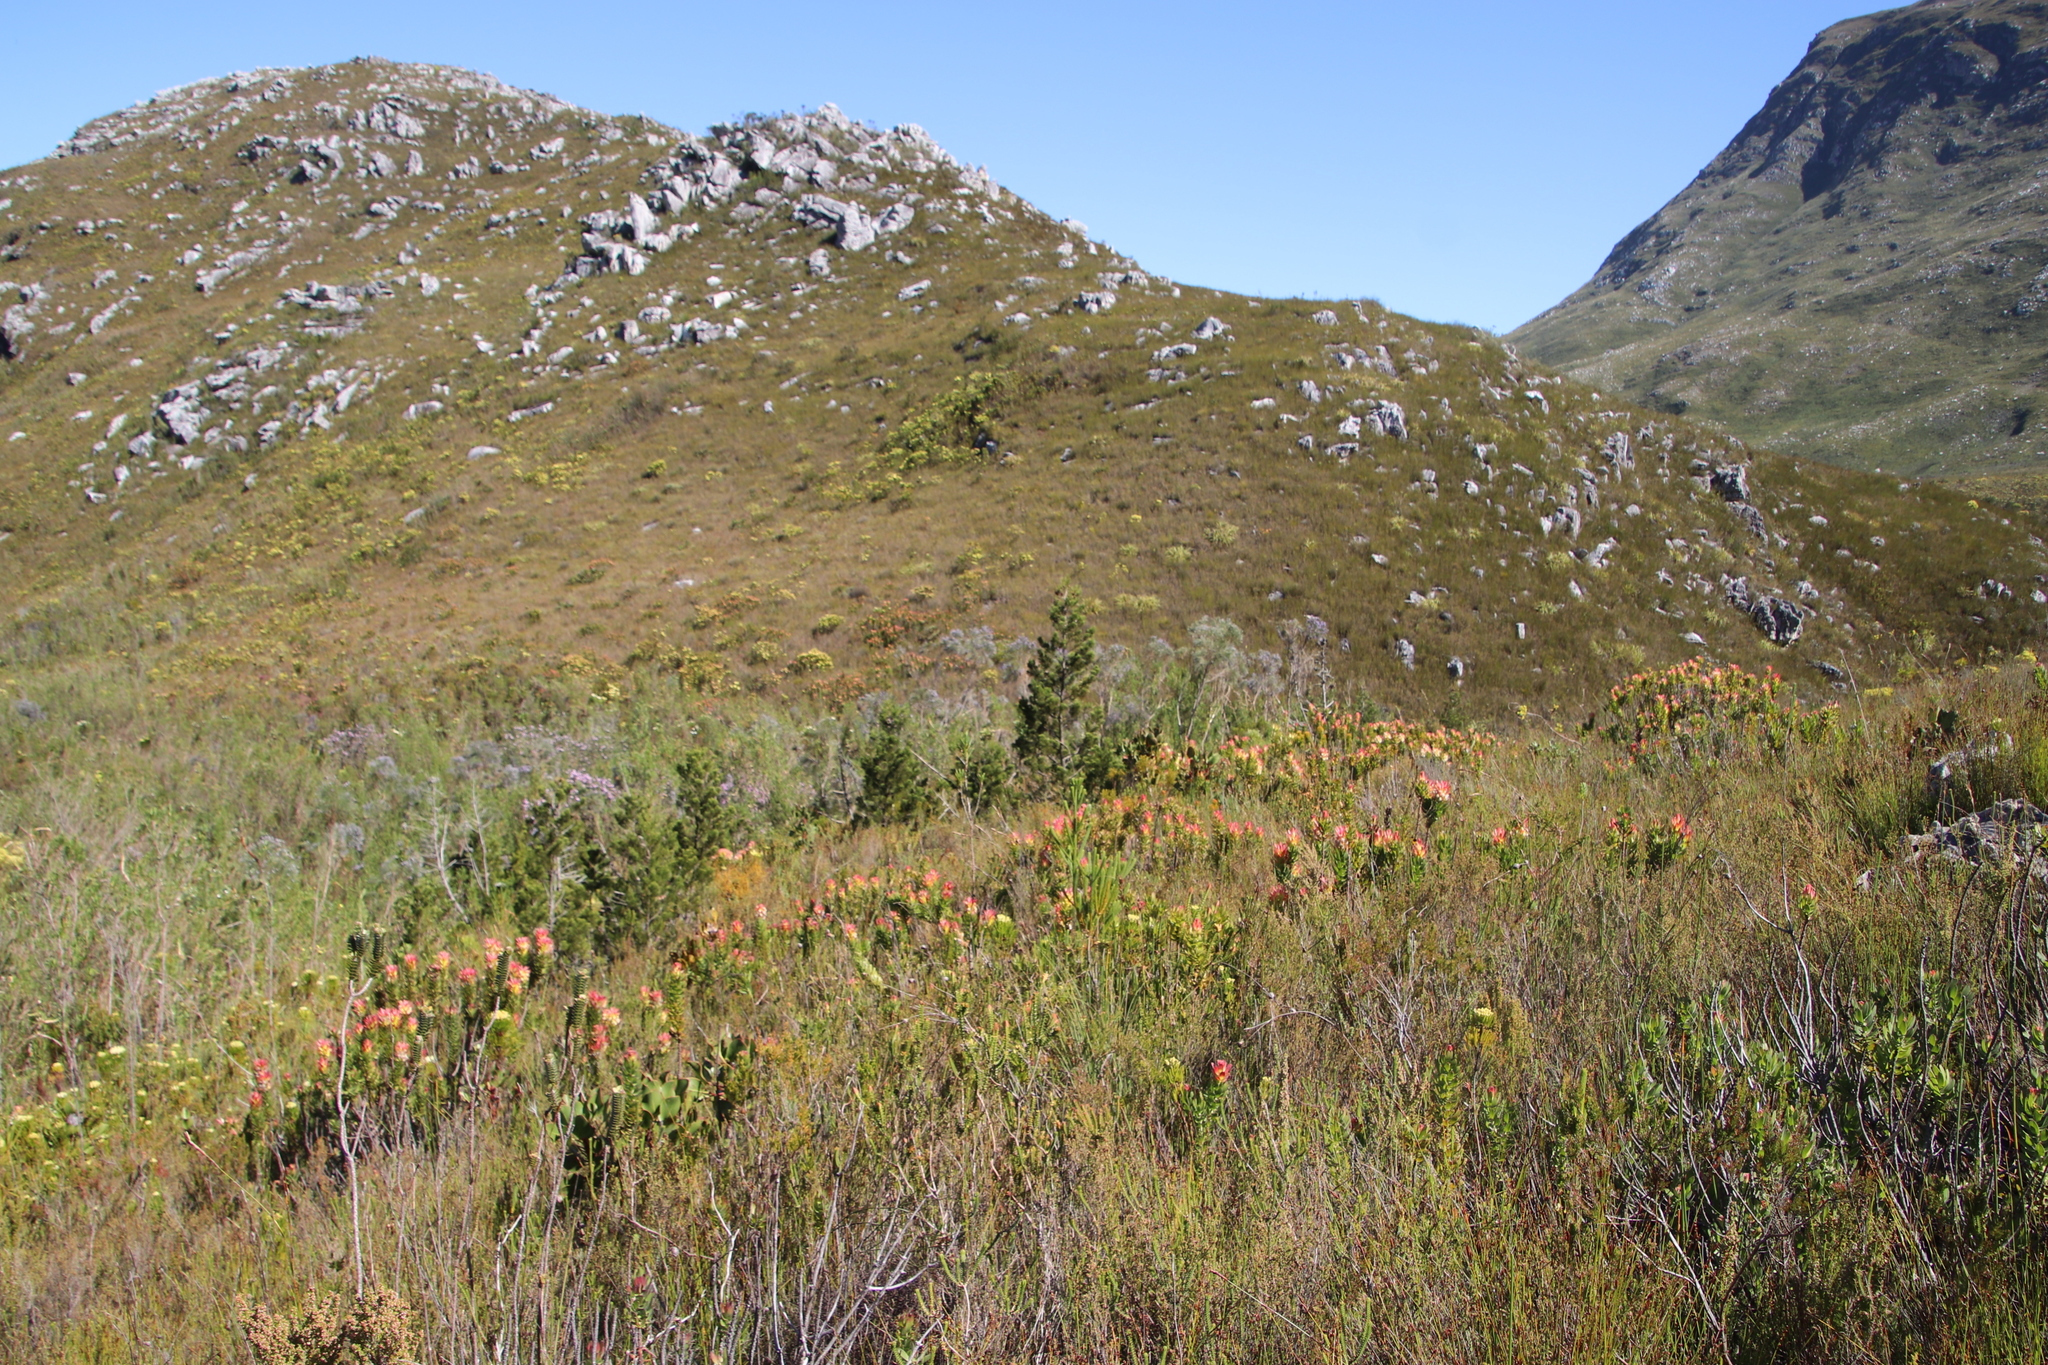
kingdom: Plantae
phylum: Tracheophyta
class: Pinopsida
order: Pinales
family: Cupressaceae
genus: Widdringtonia
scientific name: Widdringtonia nodiflora
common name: Cape cypress
